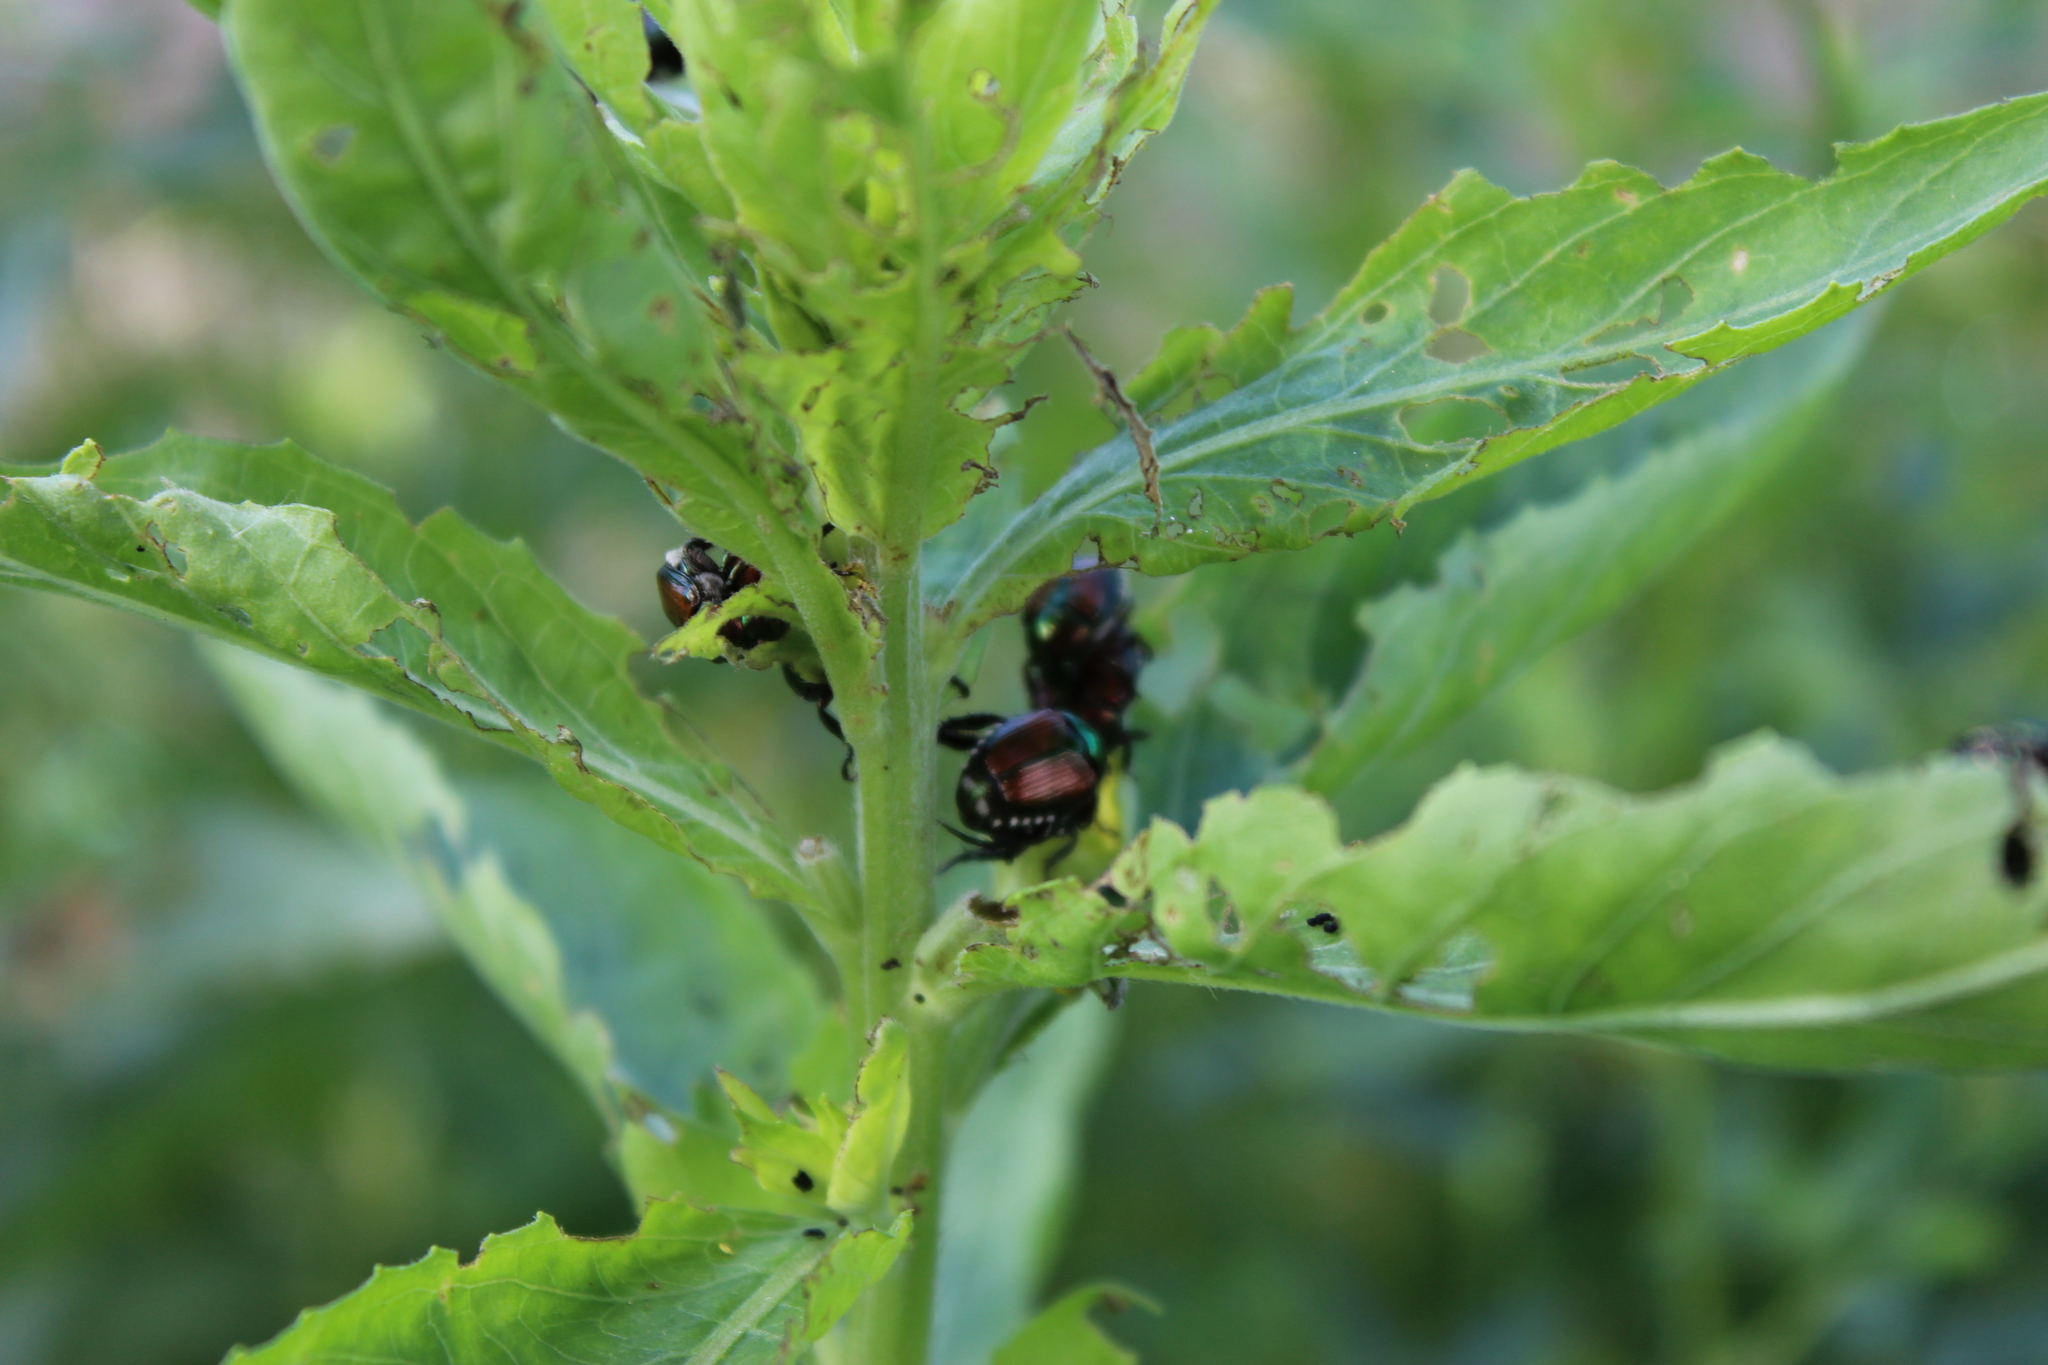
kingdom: Animalia
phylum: Arthropoda
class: Insecta
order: Coleoptera
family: Scarabaeidae
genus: Popillia
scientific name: Popillia japonica
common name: Japanese beetle
